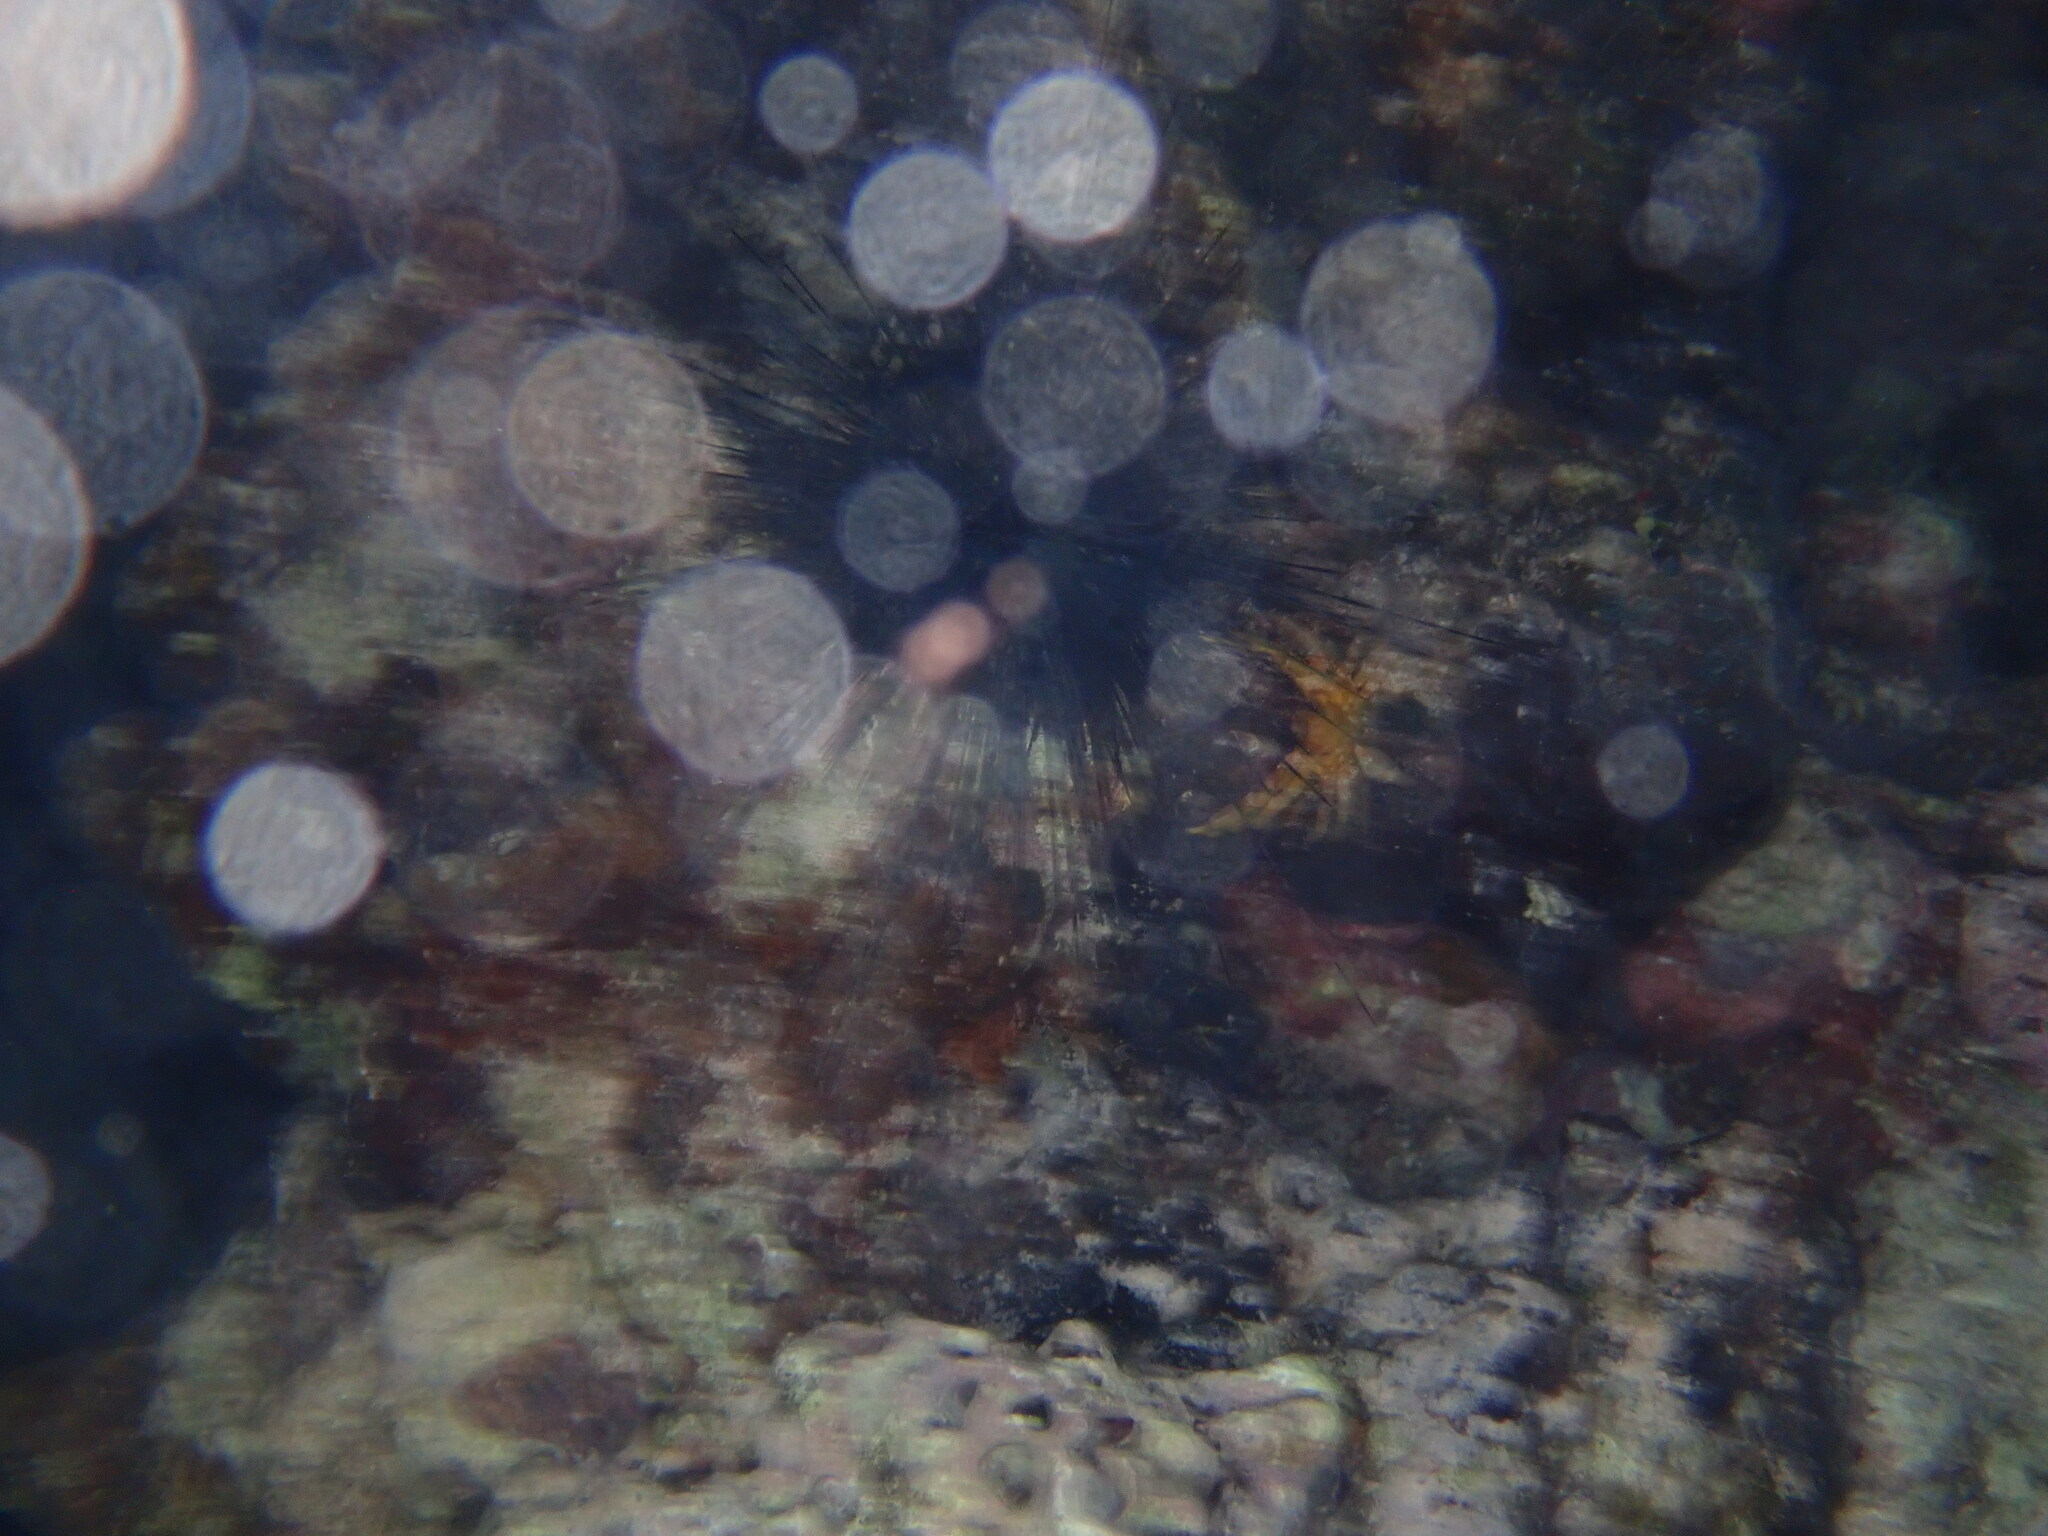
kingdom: Animalia
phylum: Echinodermata
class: Echinoidea
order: Diadematoida
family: Diadematidae
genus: Diadema
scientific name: Diadema antillarum
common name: Spiny urchin
